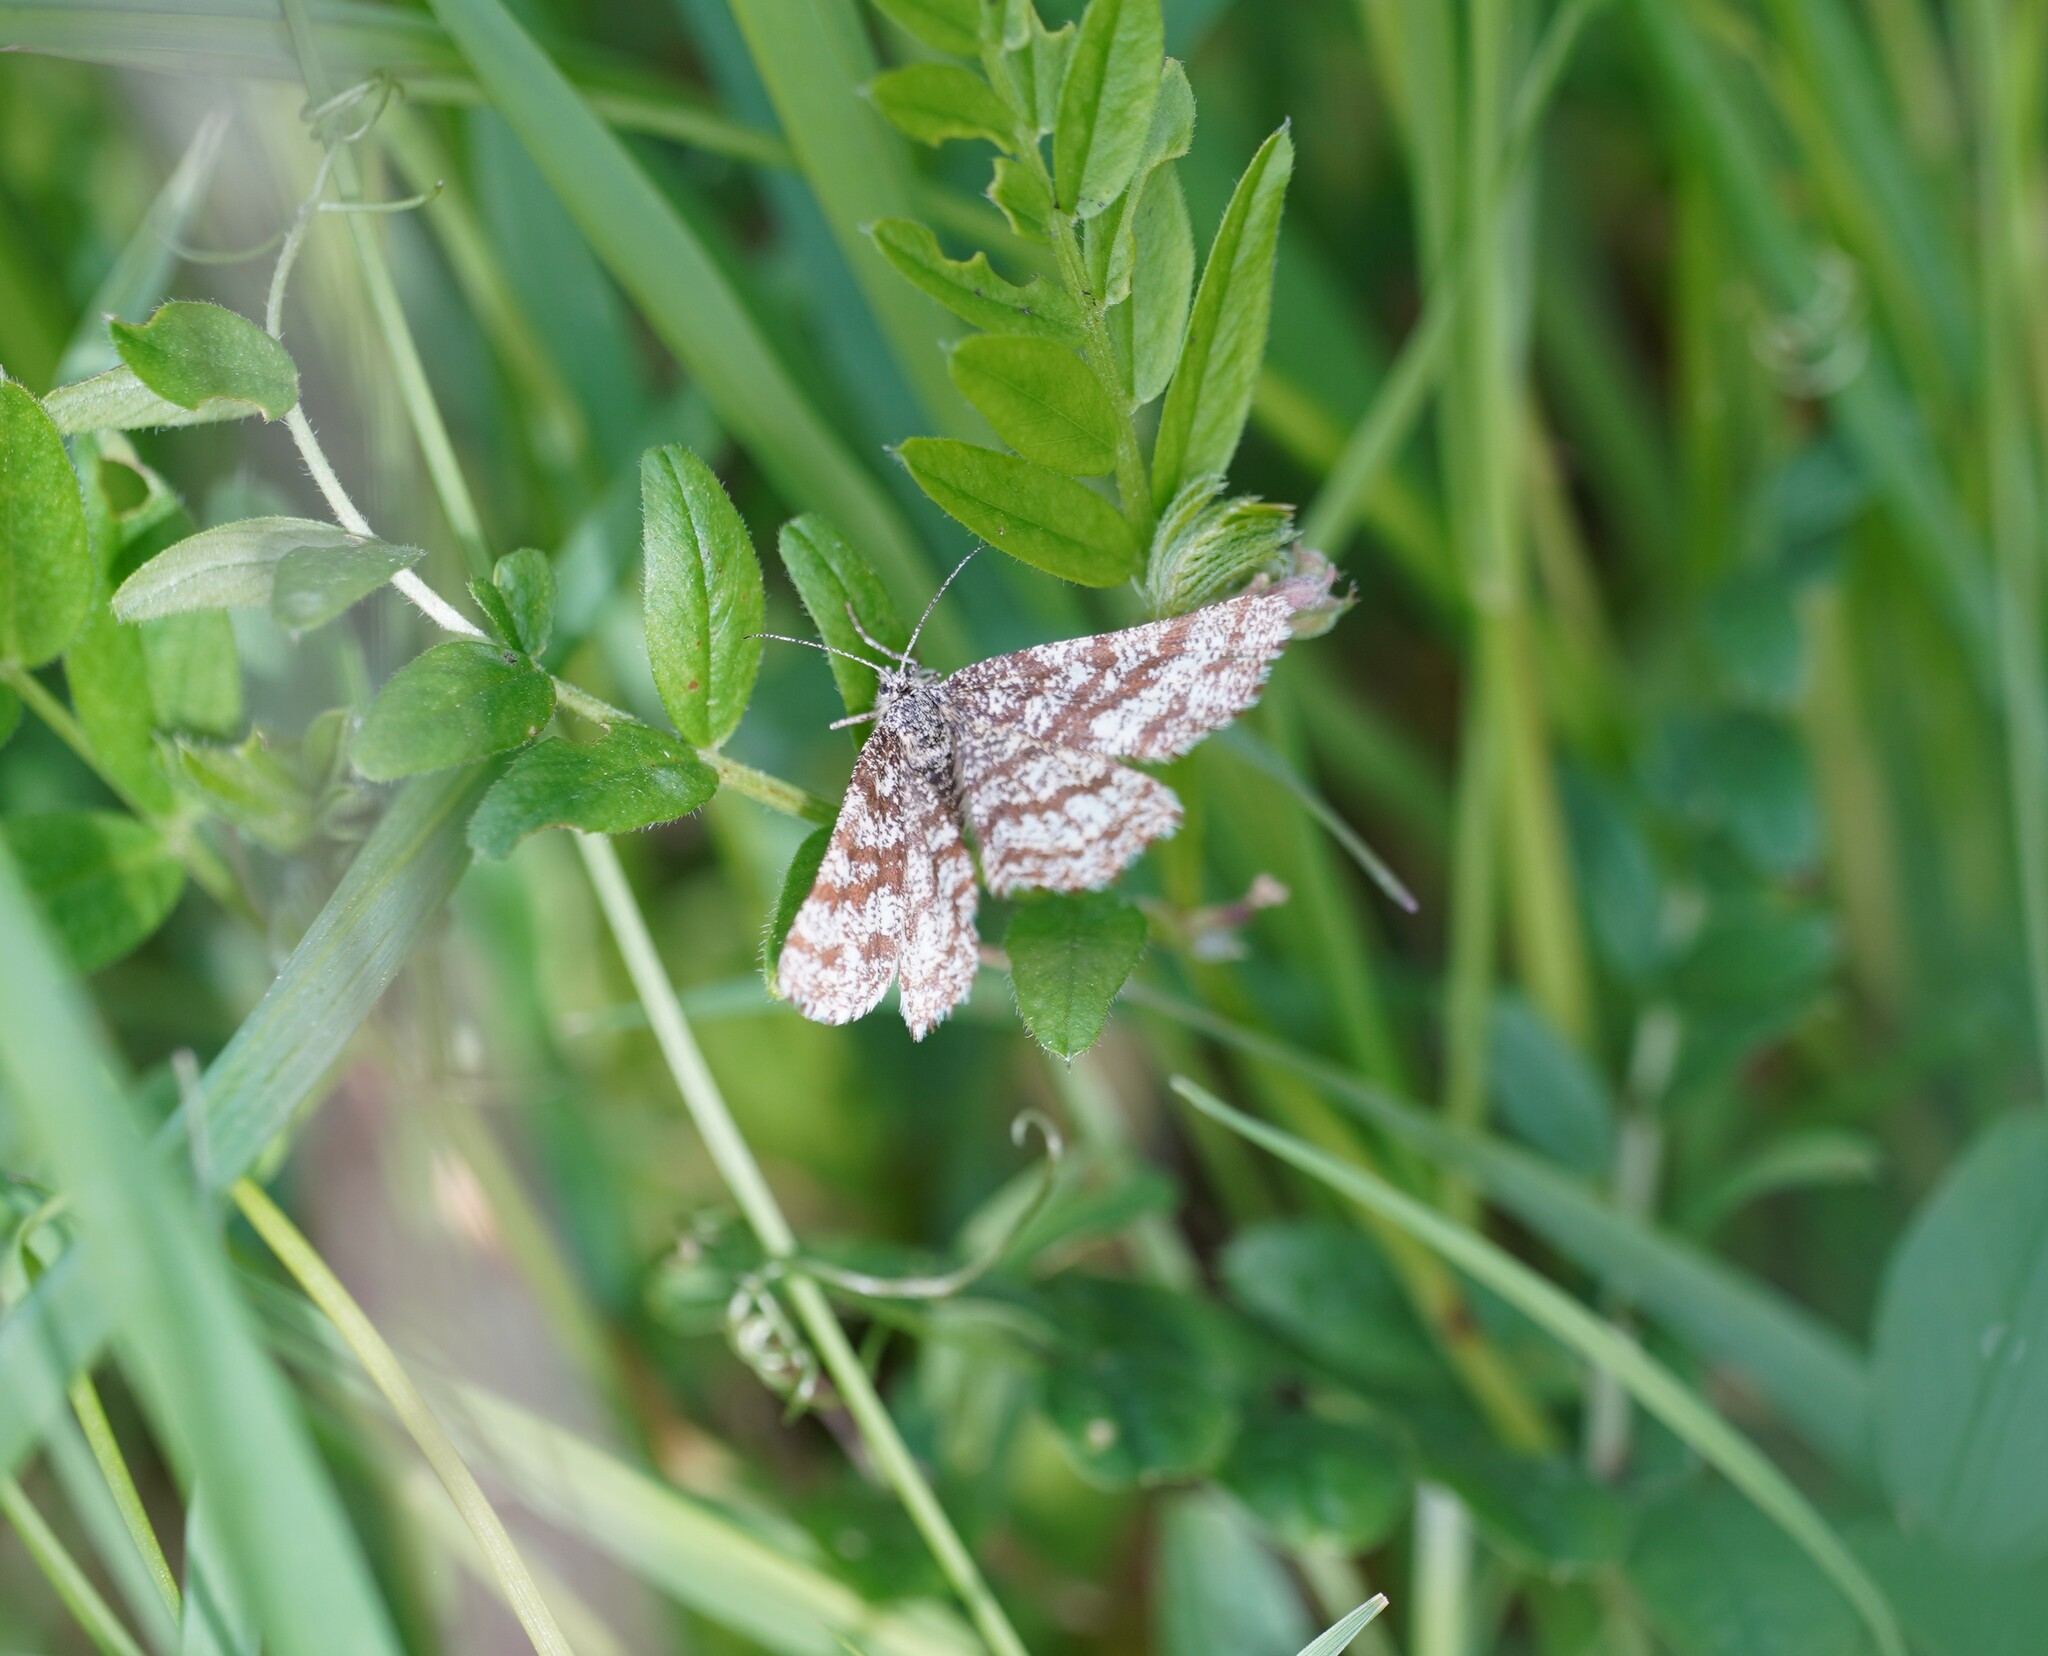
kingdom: Animalia
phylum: Arthropoda
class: Insecta
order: Lepidoptera
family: Geometridae
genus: Ematurga
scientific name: Ematurga atomaria
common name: Common heath
